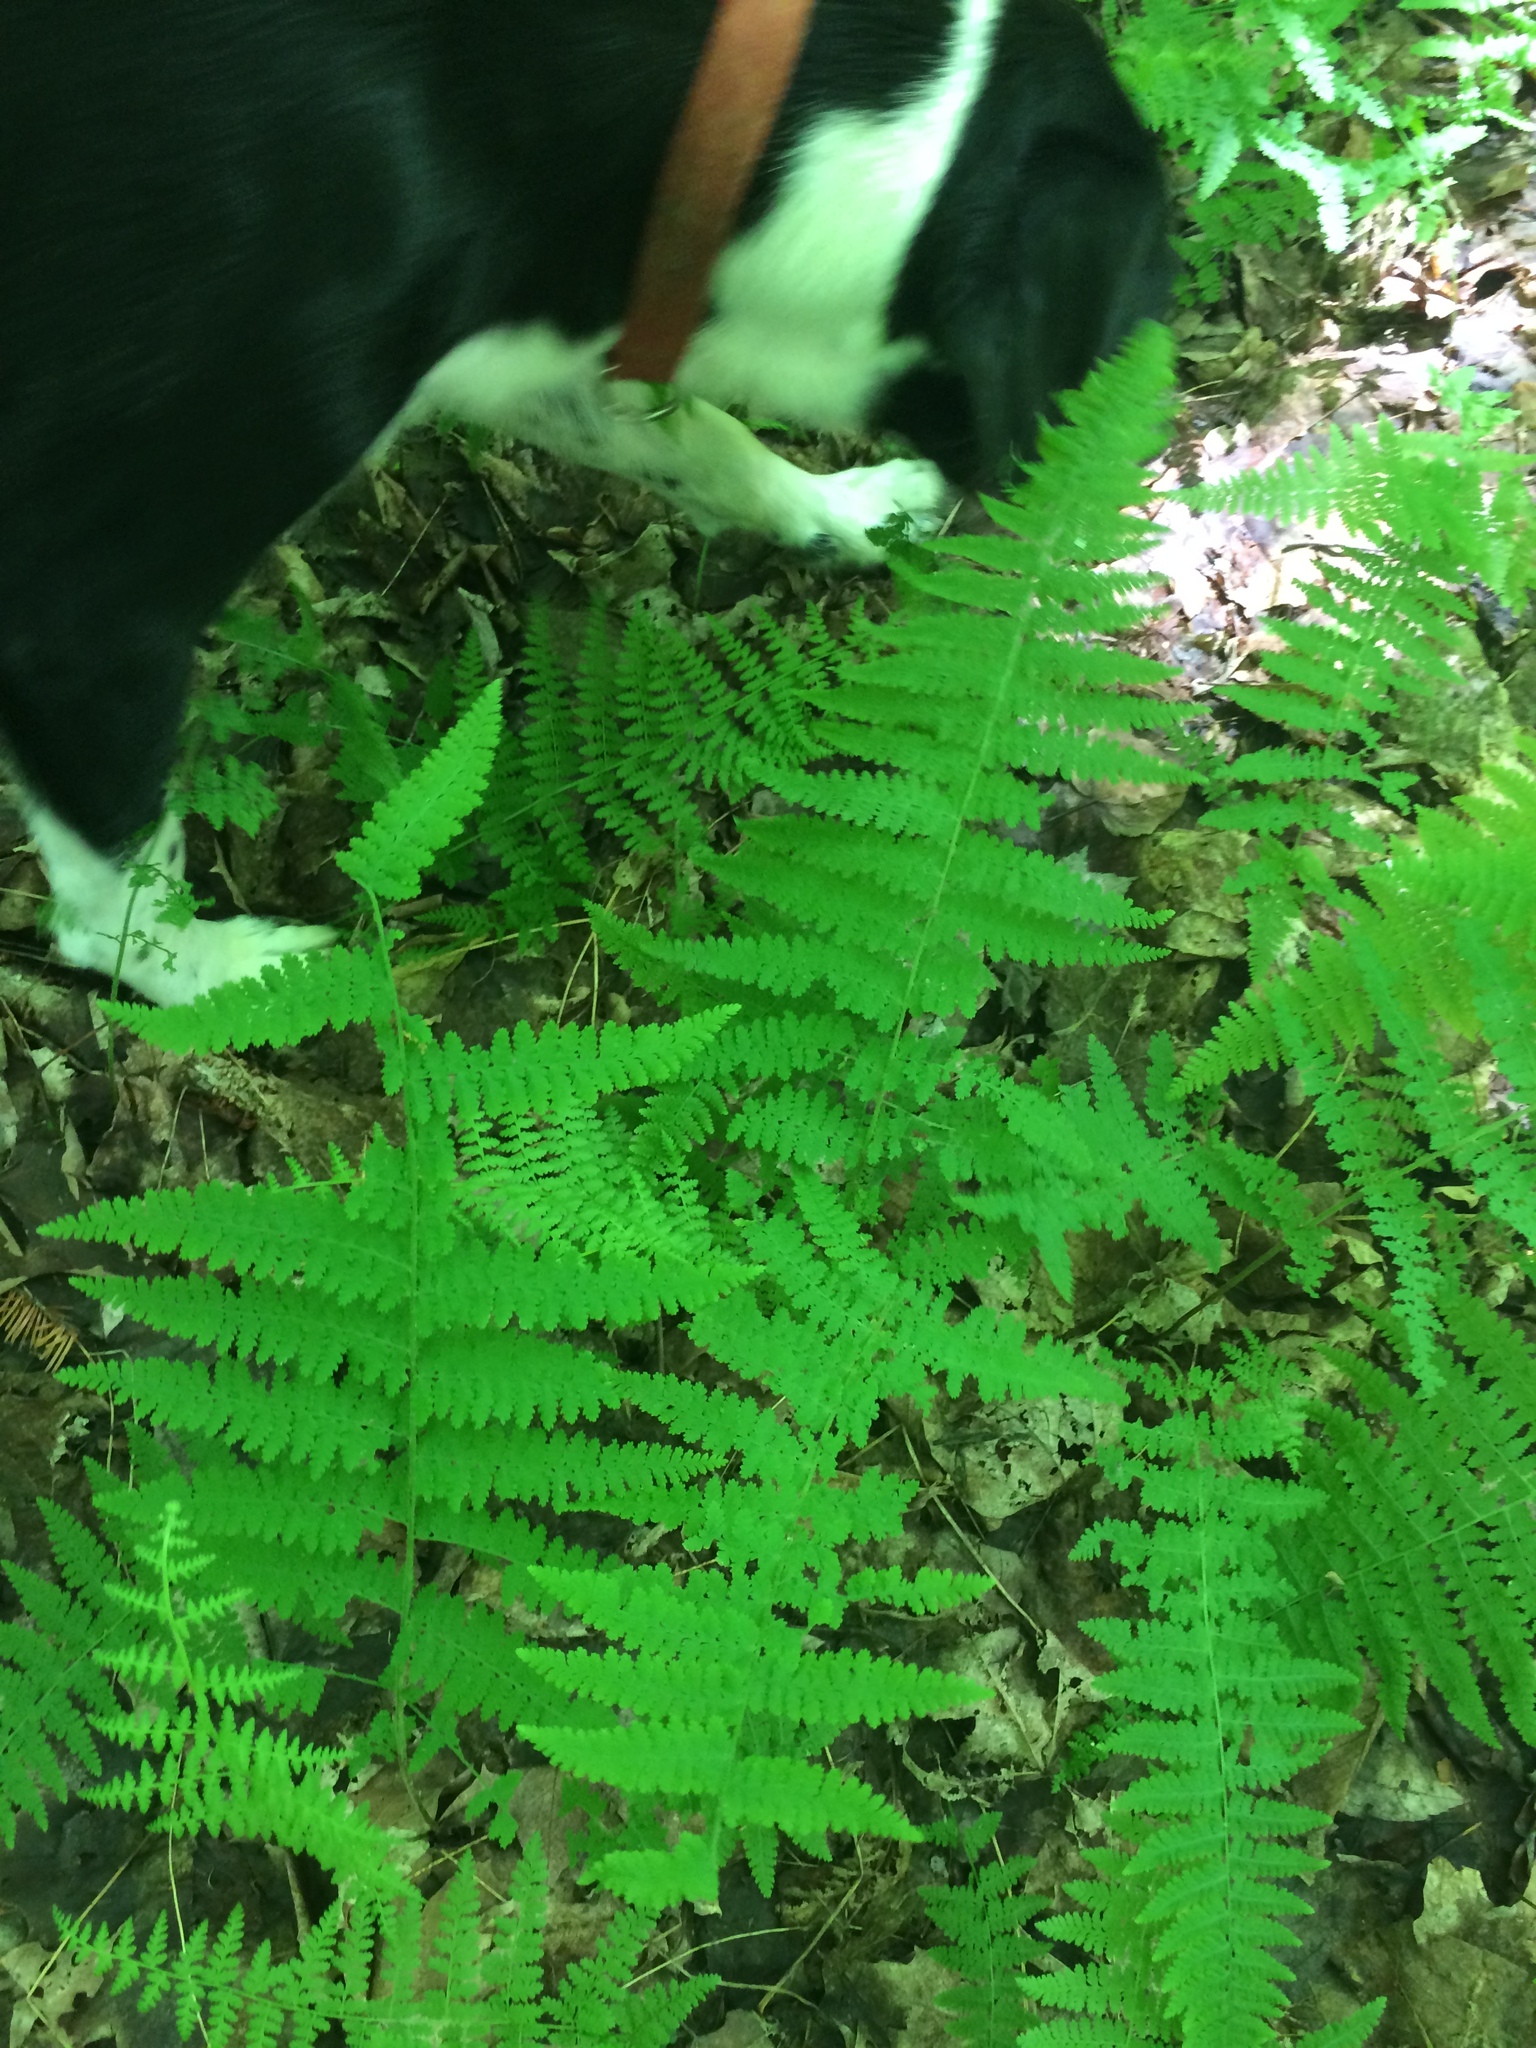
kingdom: Plantae
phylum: Tracheophyta
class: Polypodiopsida
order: Polypodiales
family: Dennstaedtiaceae
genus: Sitobolium
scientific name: Sitobolium punctilobum
